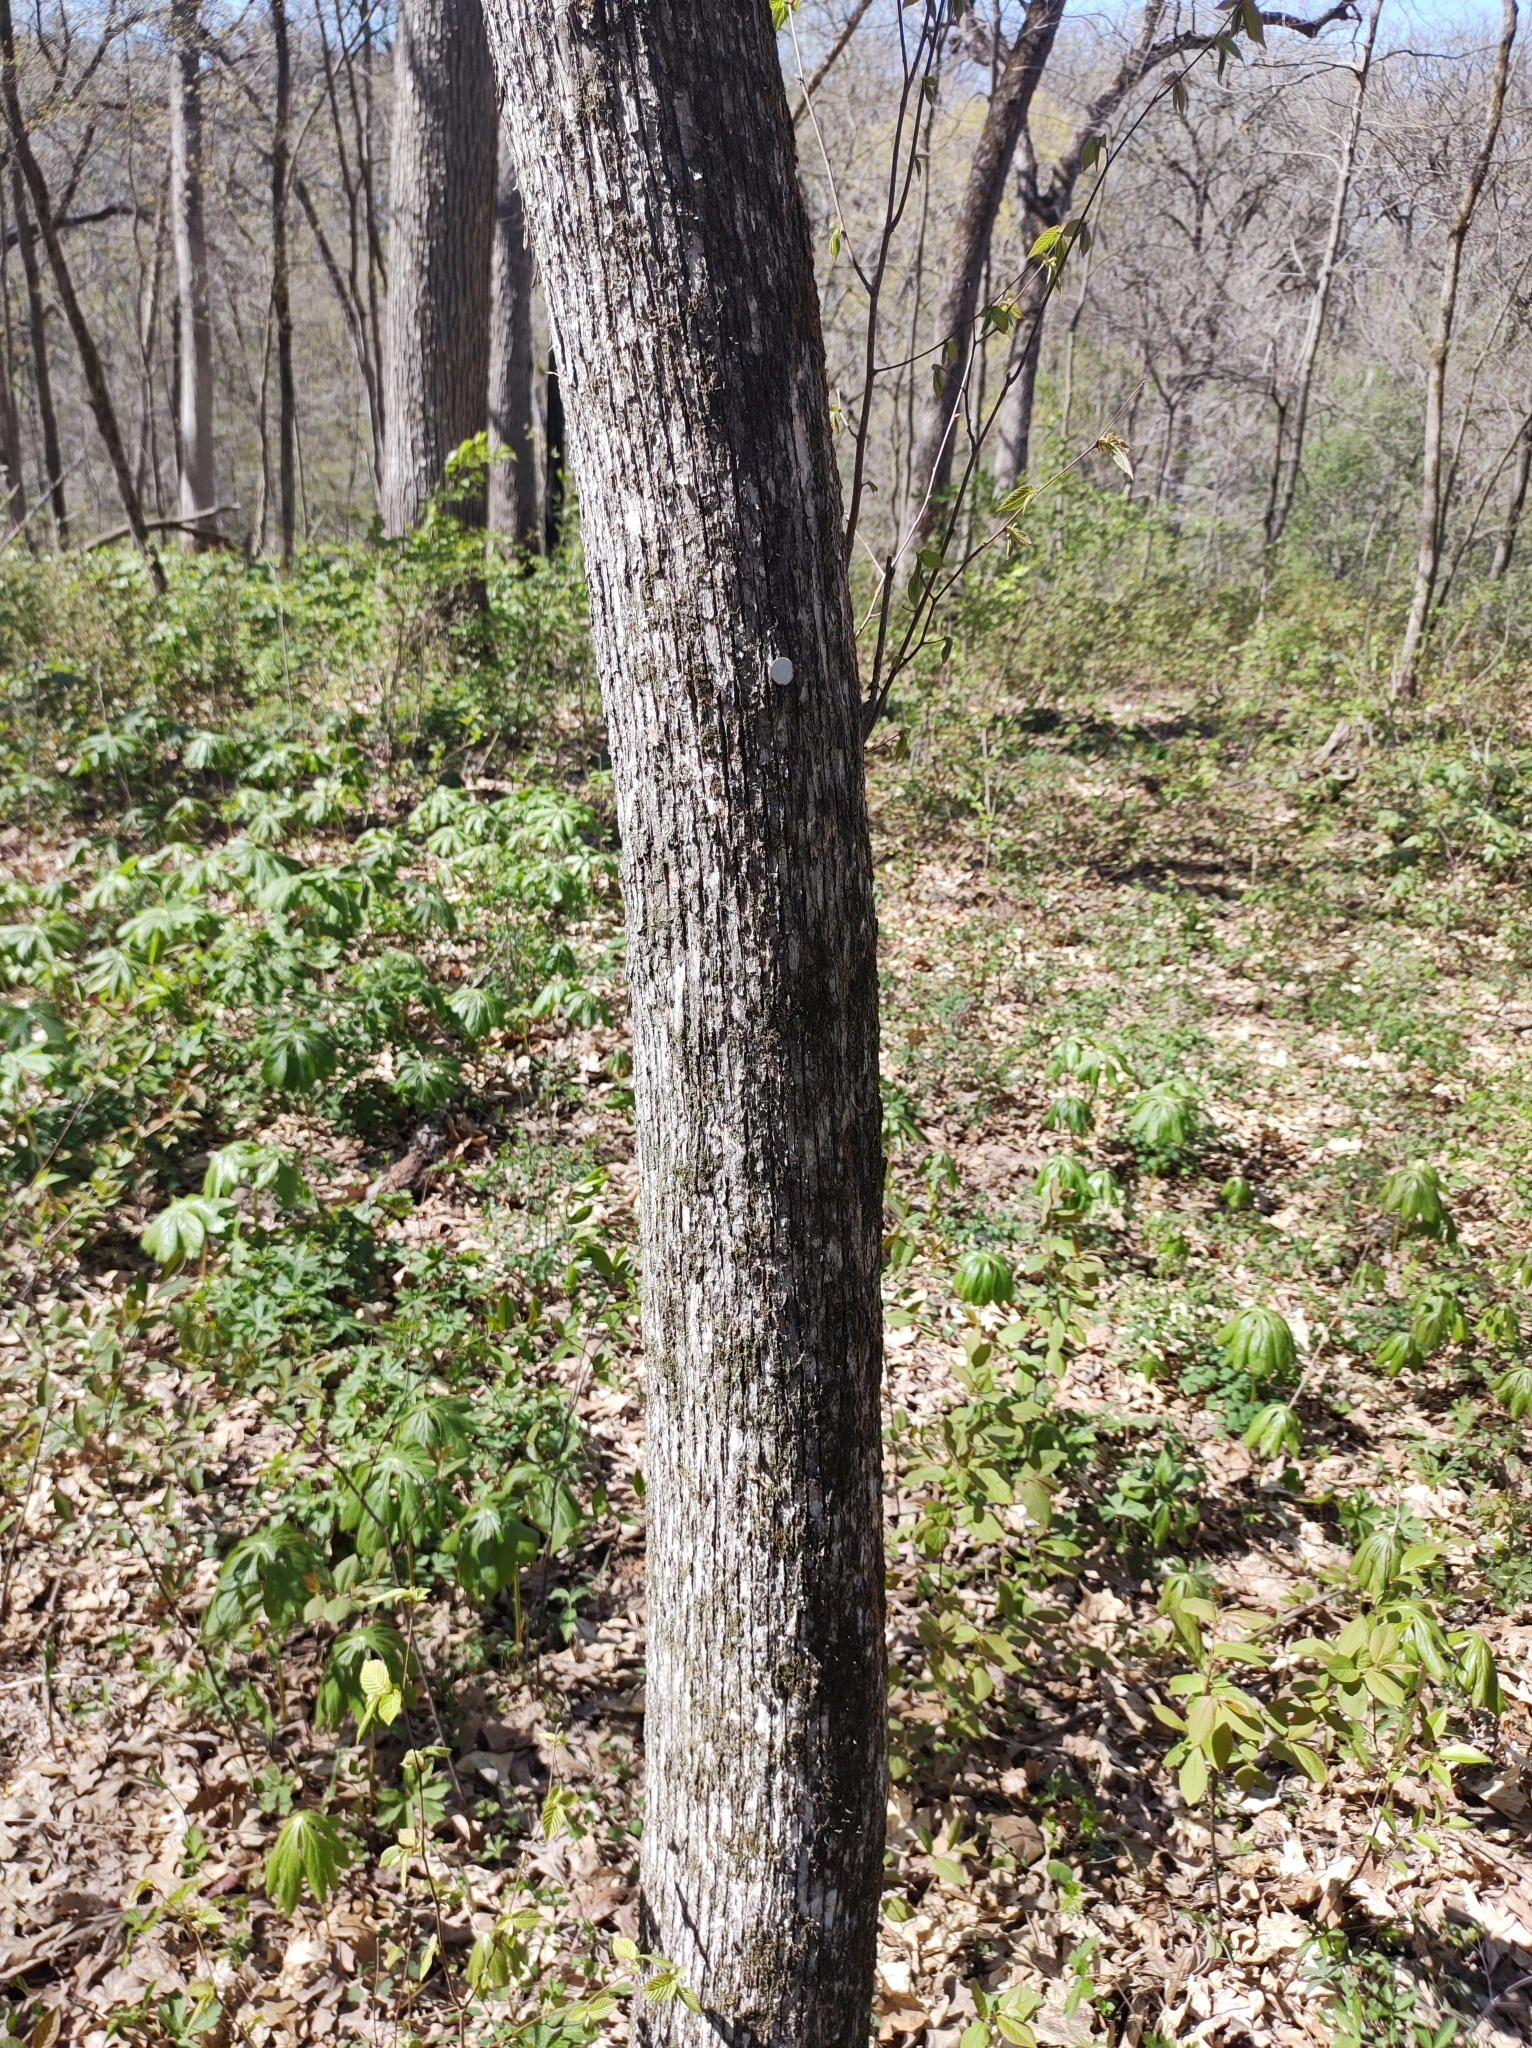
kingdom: Plantae
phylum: Tracheophyta
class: Magnoliopsida
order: Fagales
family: Betulaceae
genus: Ostrya
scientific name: Ostrya virginiana
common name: Ironwood
